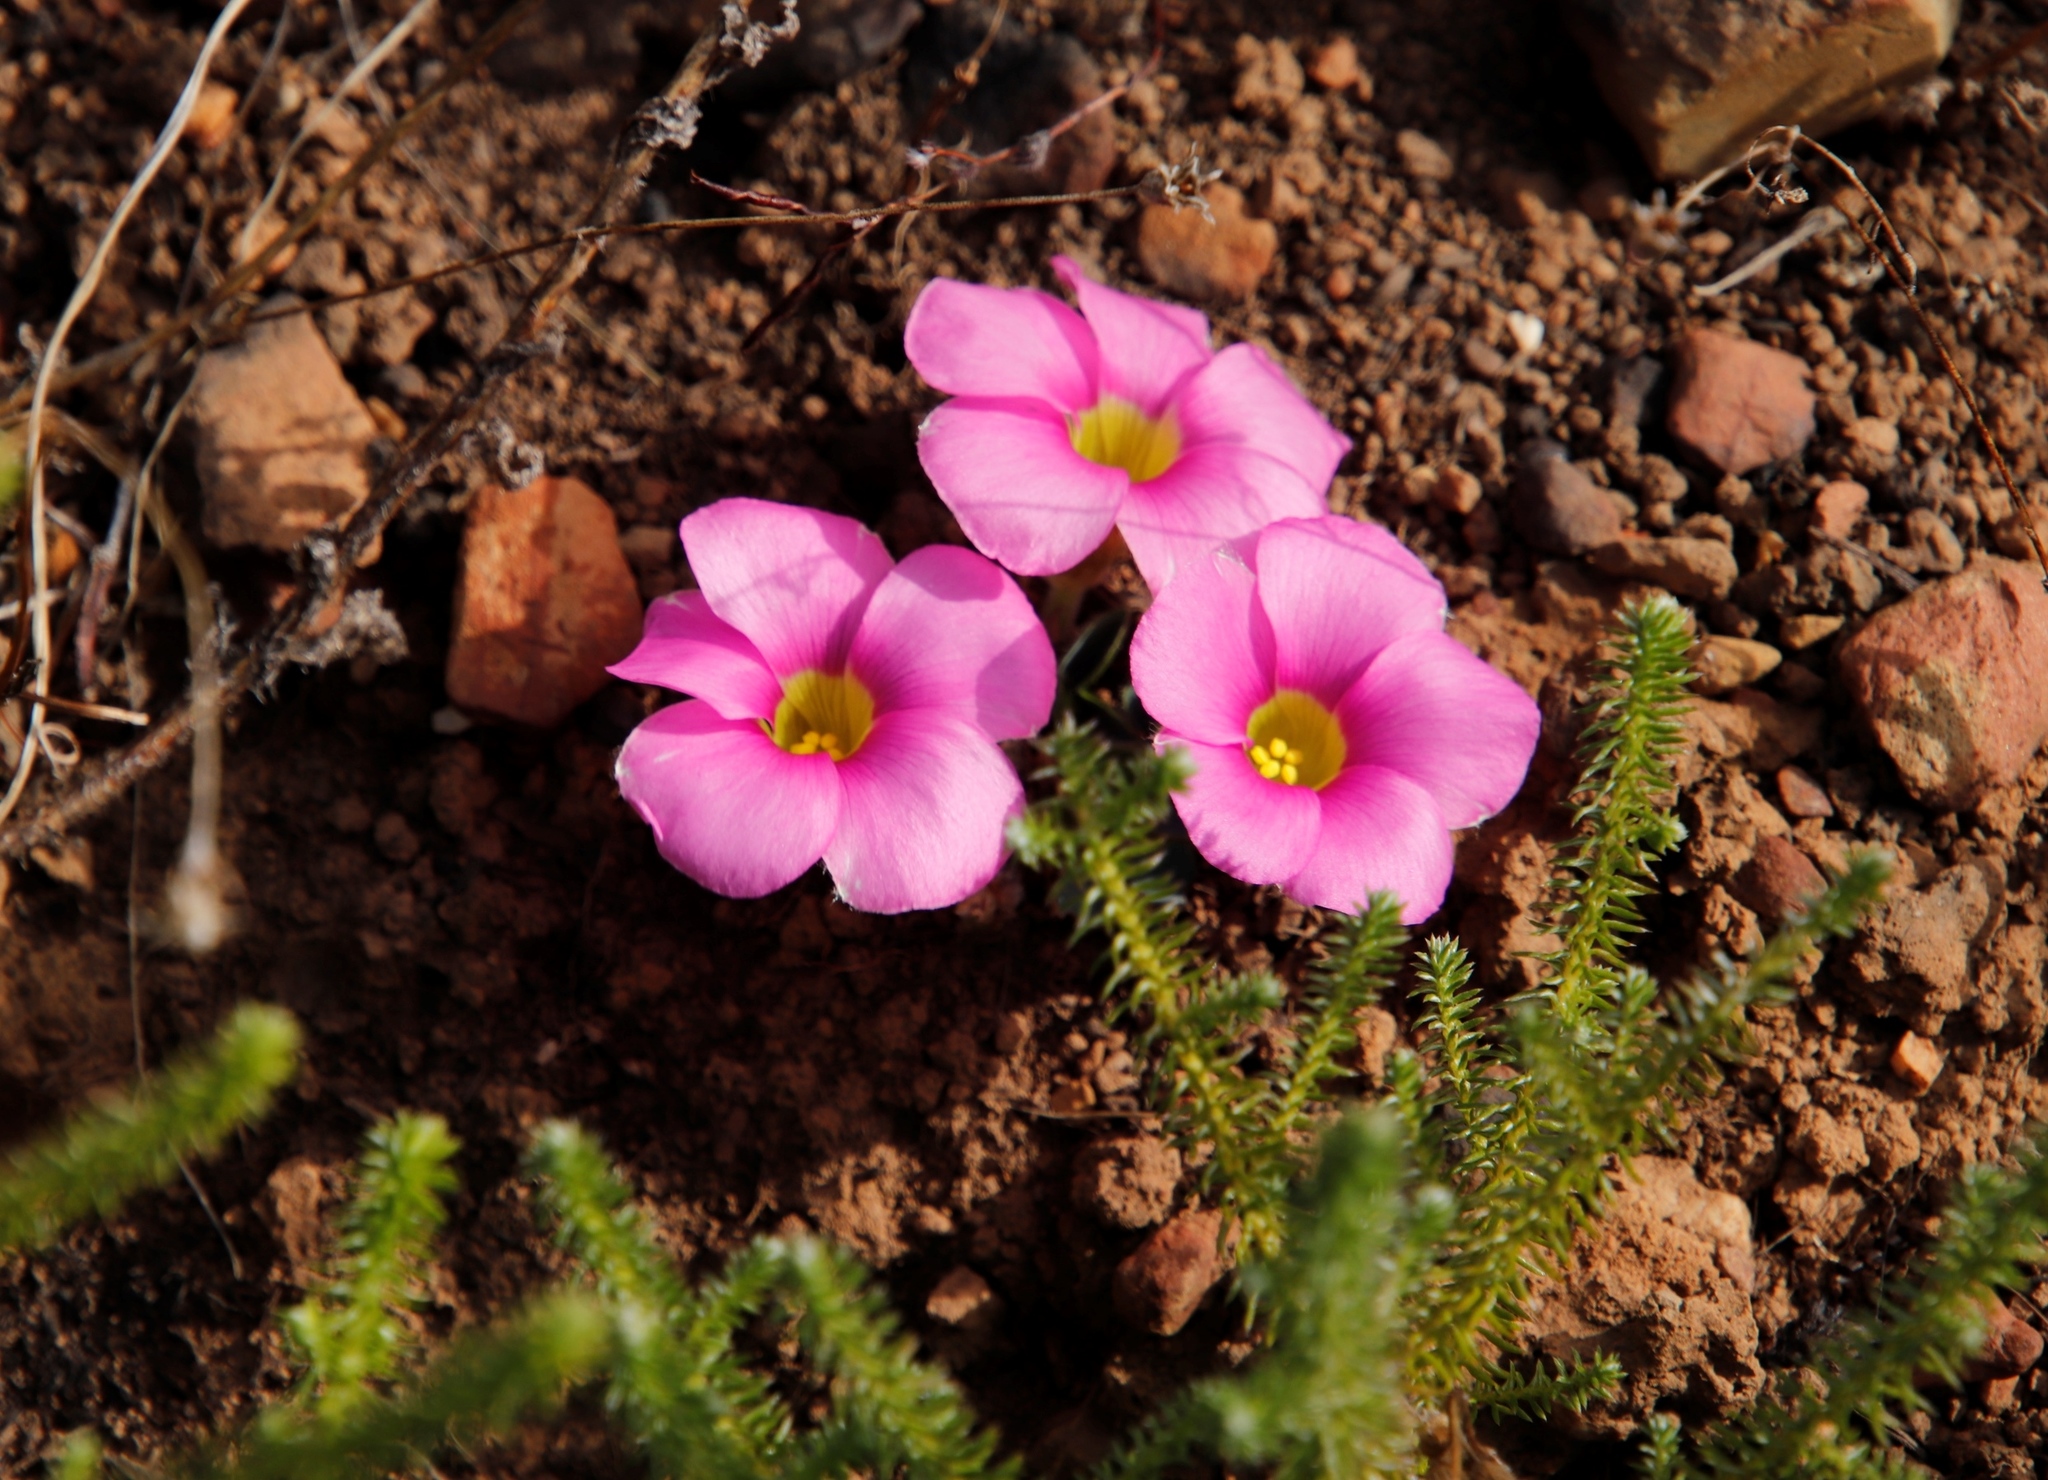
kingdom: Plantae
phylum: Tracheophyta
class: Magnoliopsida
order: Oxalidales
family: Oxalidaceae
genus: Oxalis
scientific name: Oxalis purpurea
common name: Purple woodsorrel
